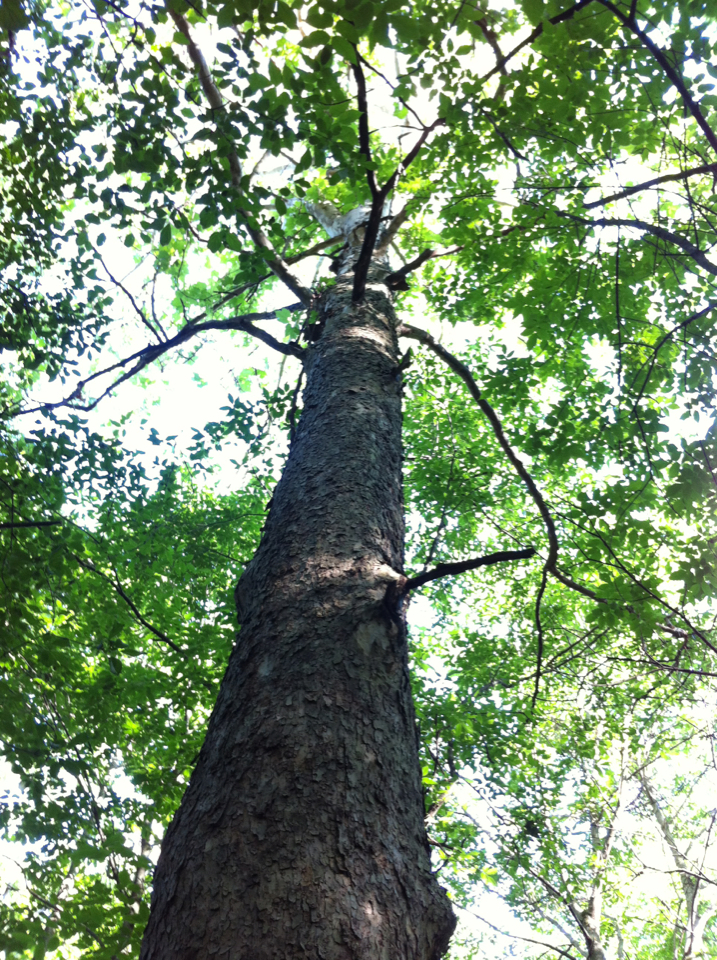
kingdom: Plantae
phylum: Tracheophyta
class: Magnoliopsida
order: Rosales
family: Rosaceae
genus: Prunus
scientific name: Prunus serotina
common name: Black cherry
